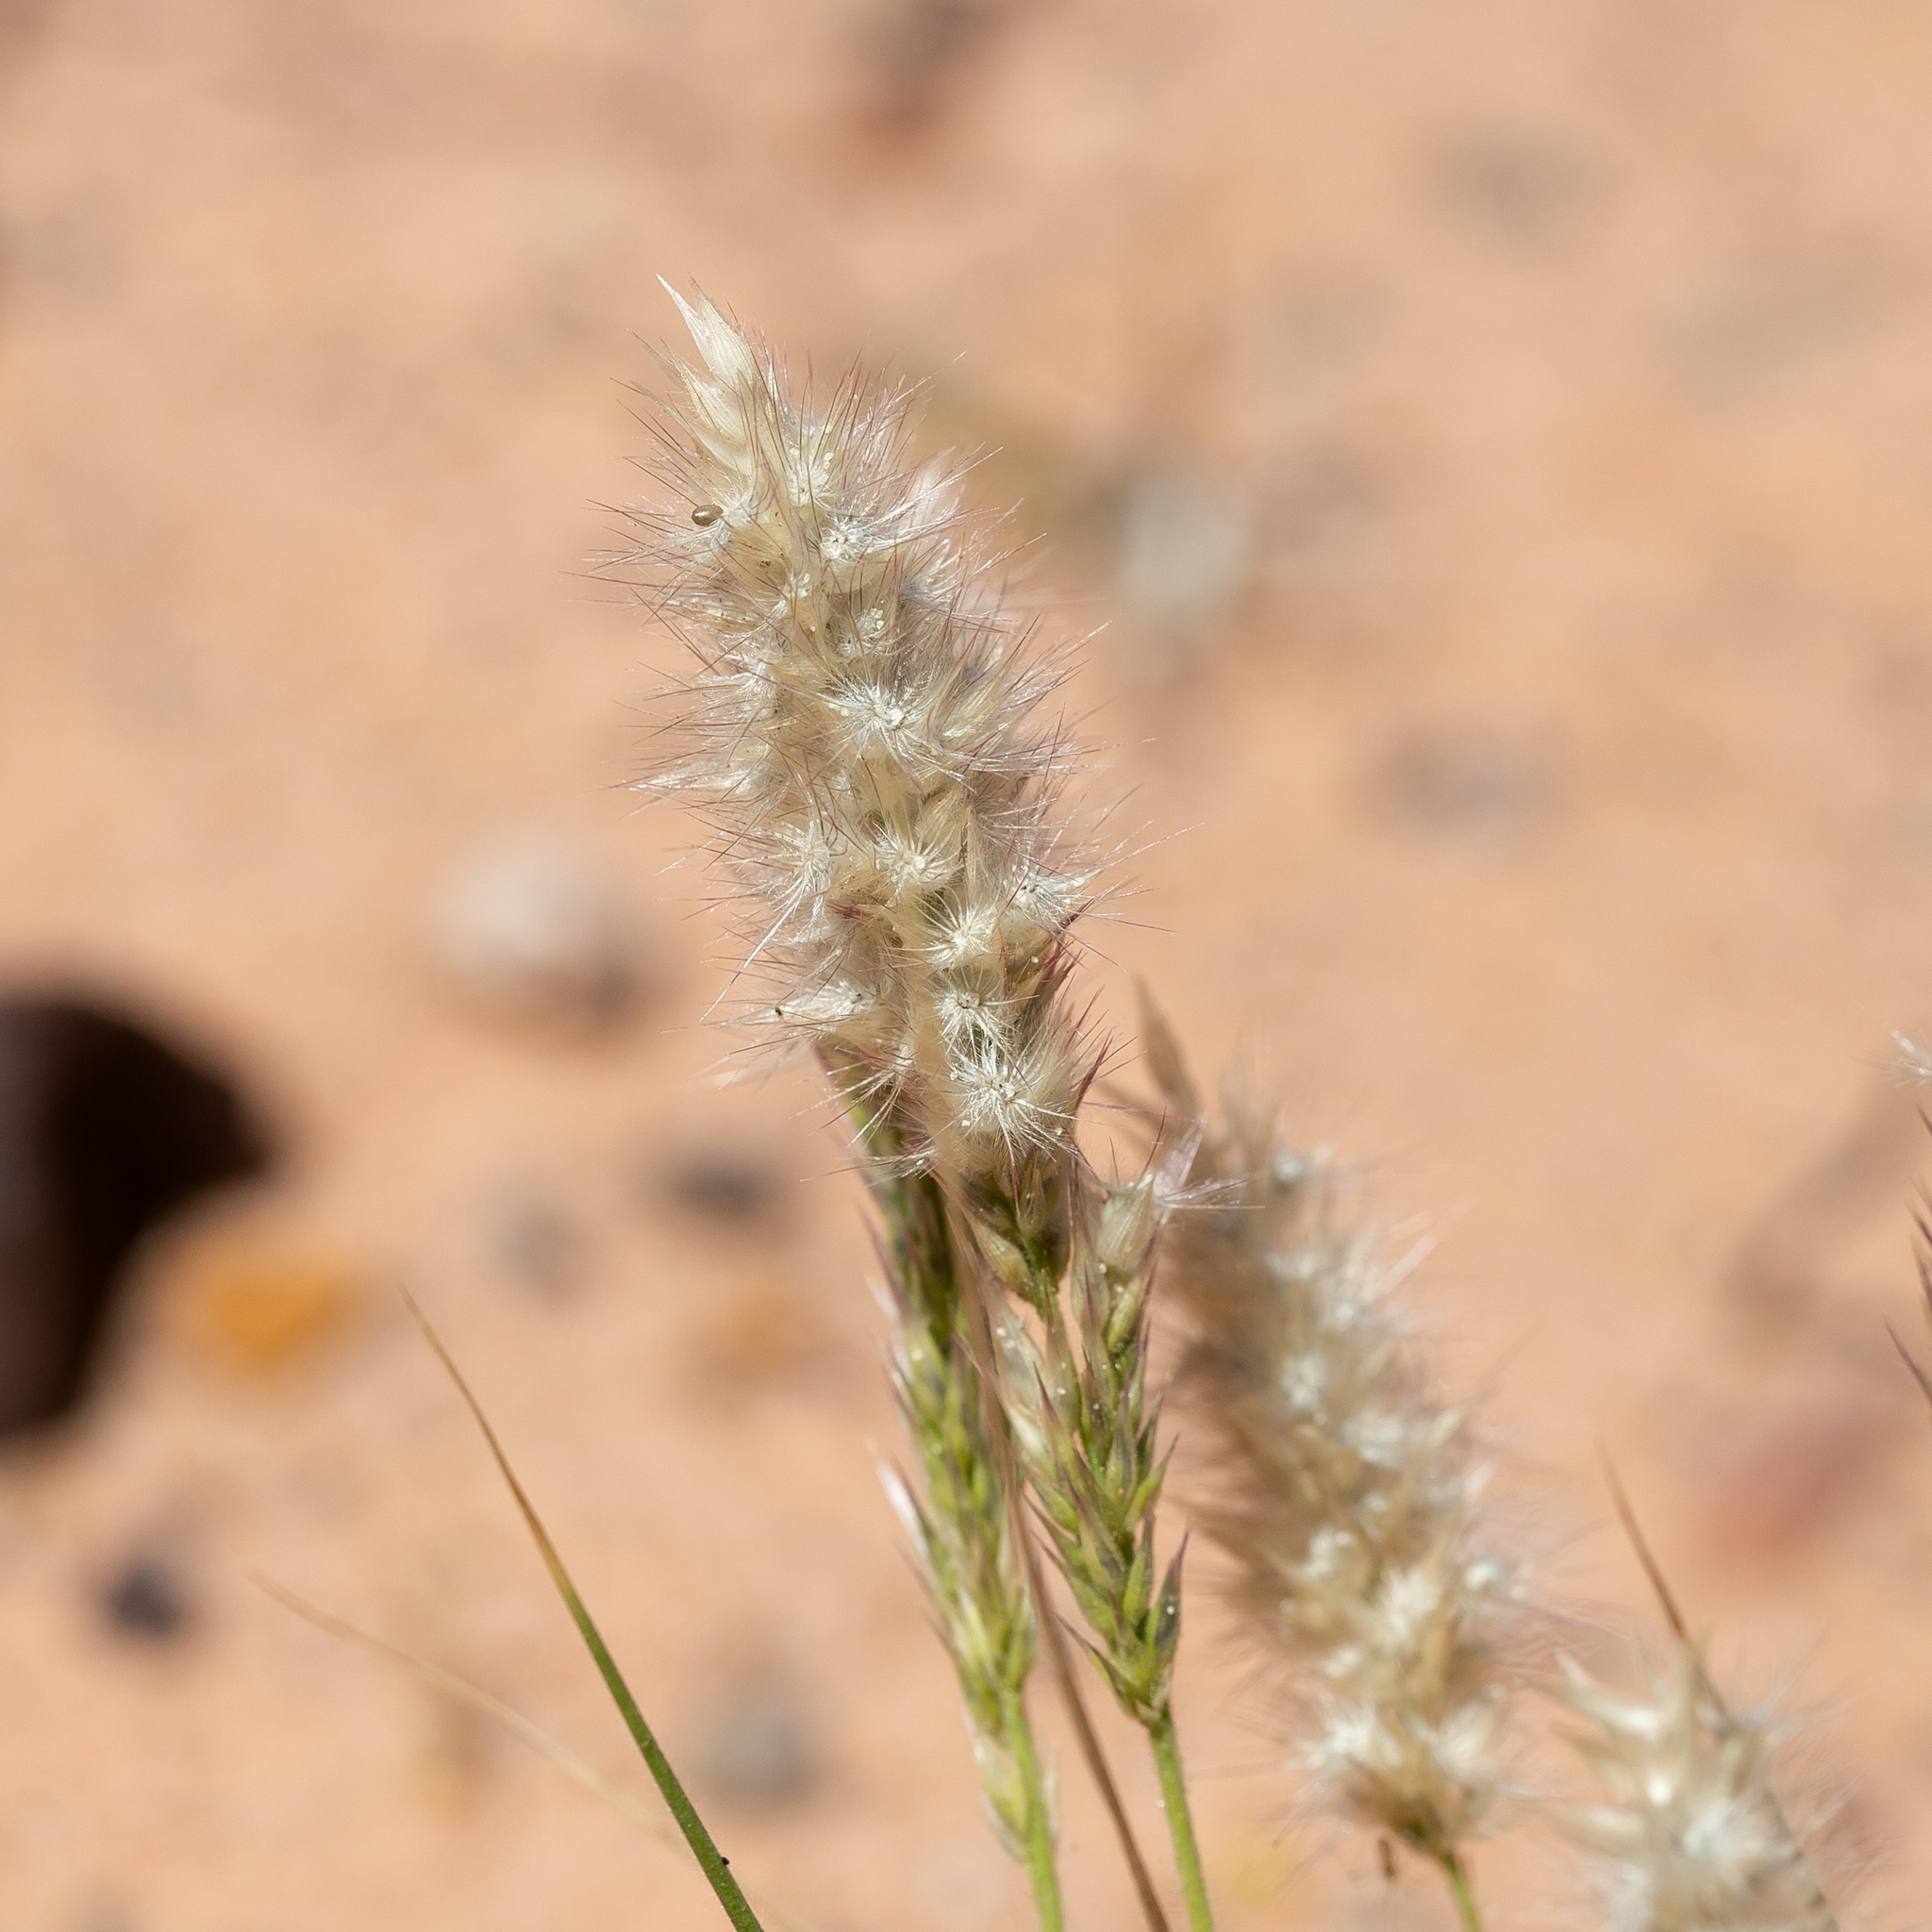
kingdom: Plantae
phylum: Tracheophyta
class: Liliopsida
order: Poales
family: Poaceae
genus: Enneapogon
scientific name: Enneapogon polyphyllus
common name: Leafy nineawn
